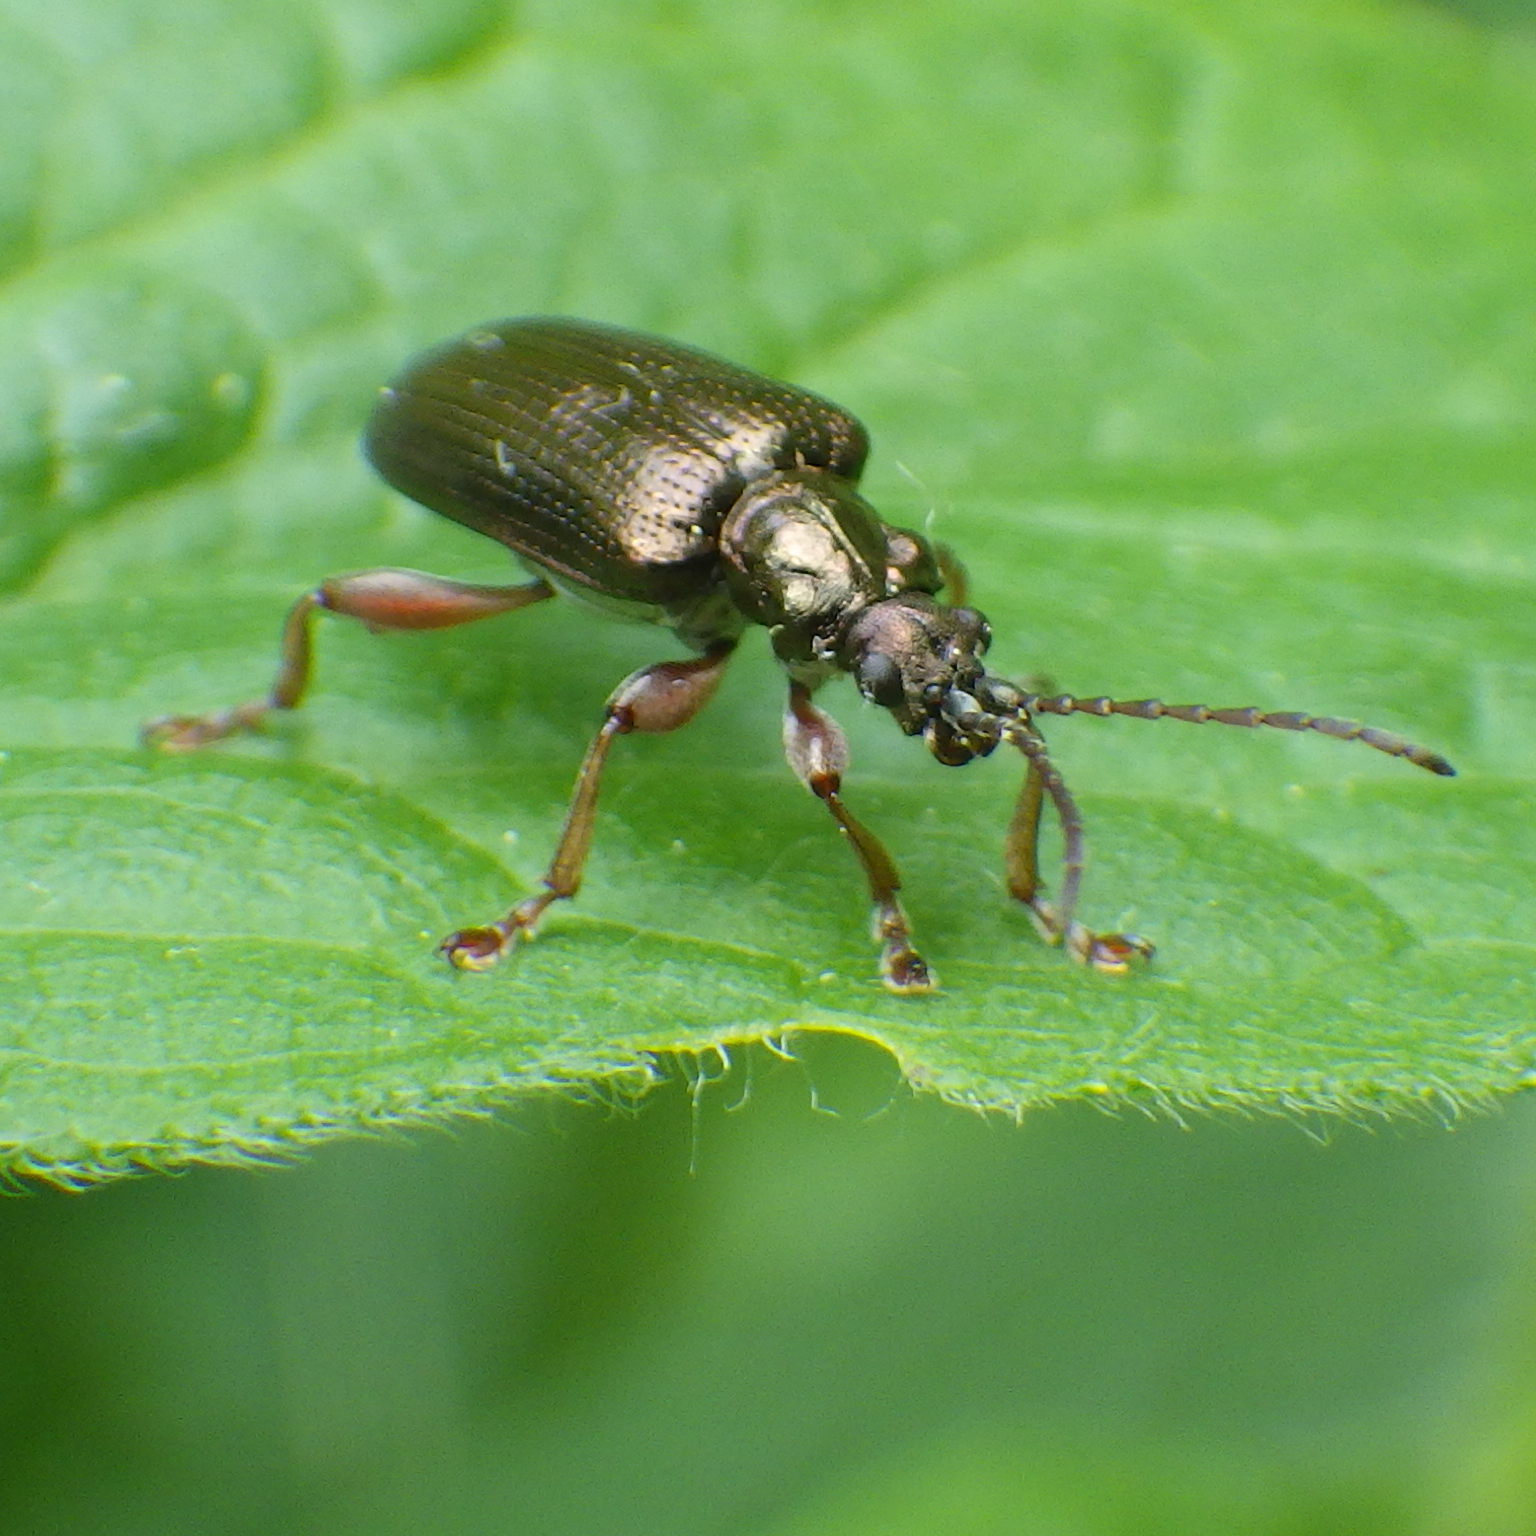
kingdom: Animalia
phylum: Arthropoda
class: Insecta
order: Coleoptera
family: Chrysomelidae
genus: Plateumaris
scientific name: Plateumaris rufa
